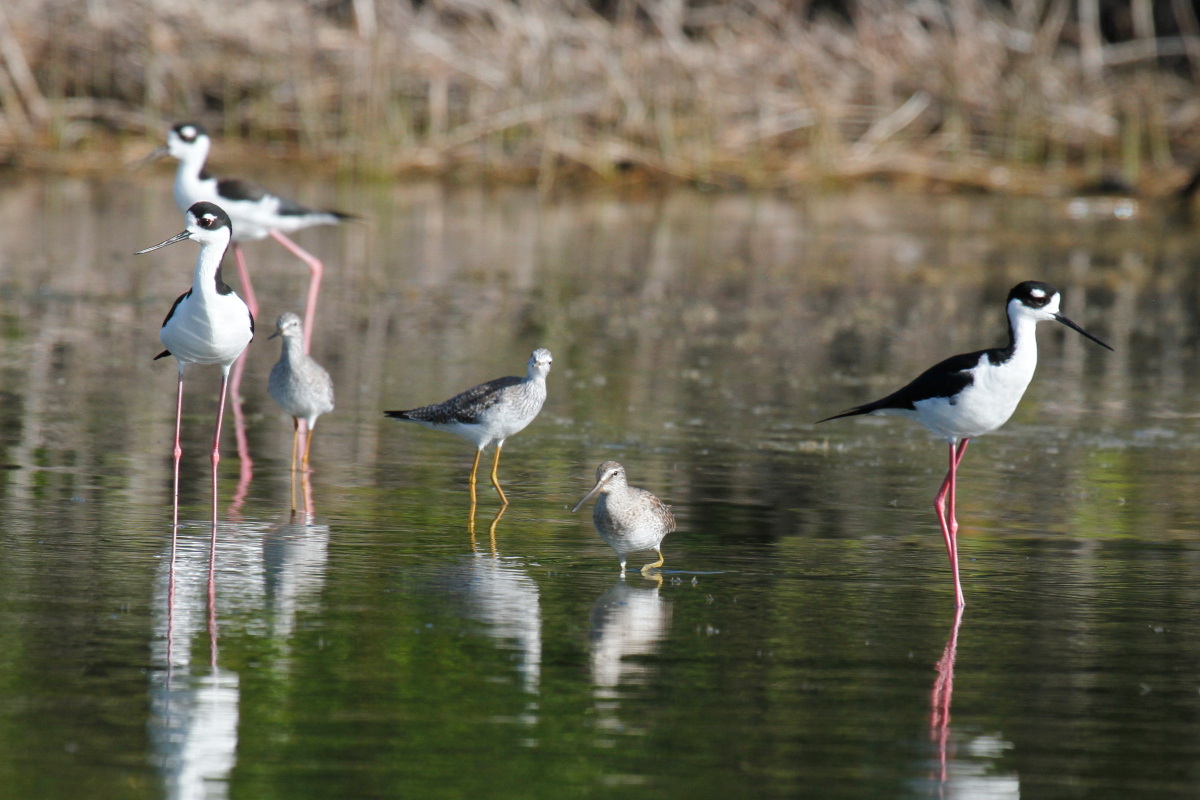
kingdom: Animalia
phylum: Chordata
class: Aves
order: Charadriiformes
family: Scolopacidae
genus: Limnodromus
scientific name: Limnodromus griseus
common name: Short-billed dowitcher
